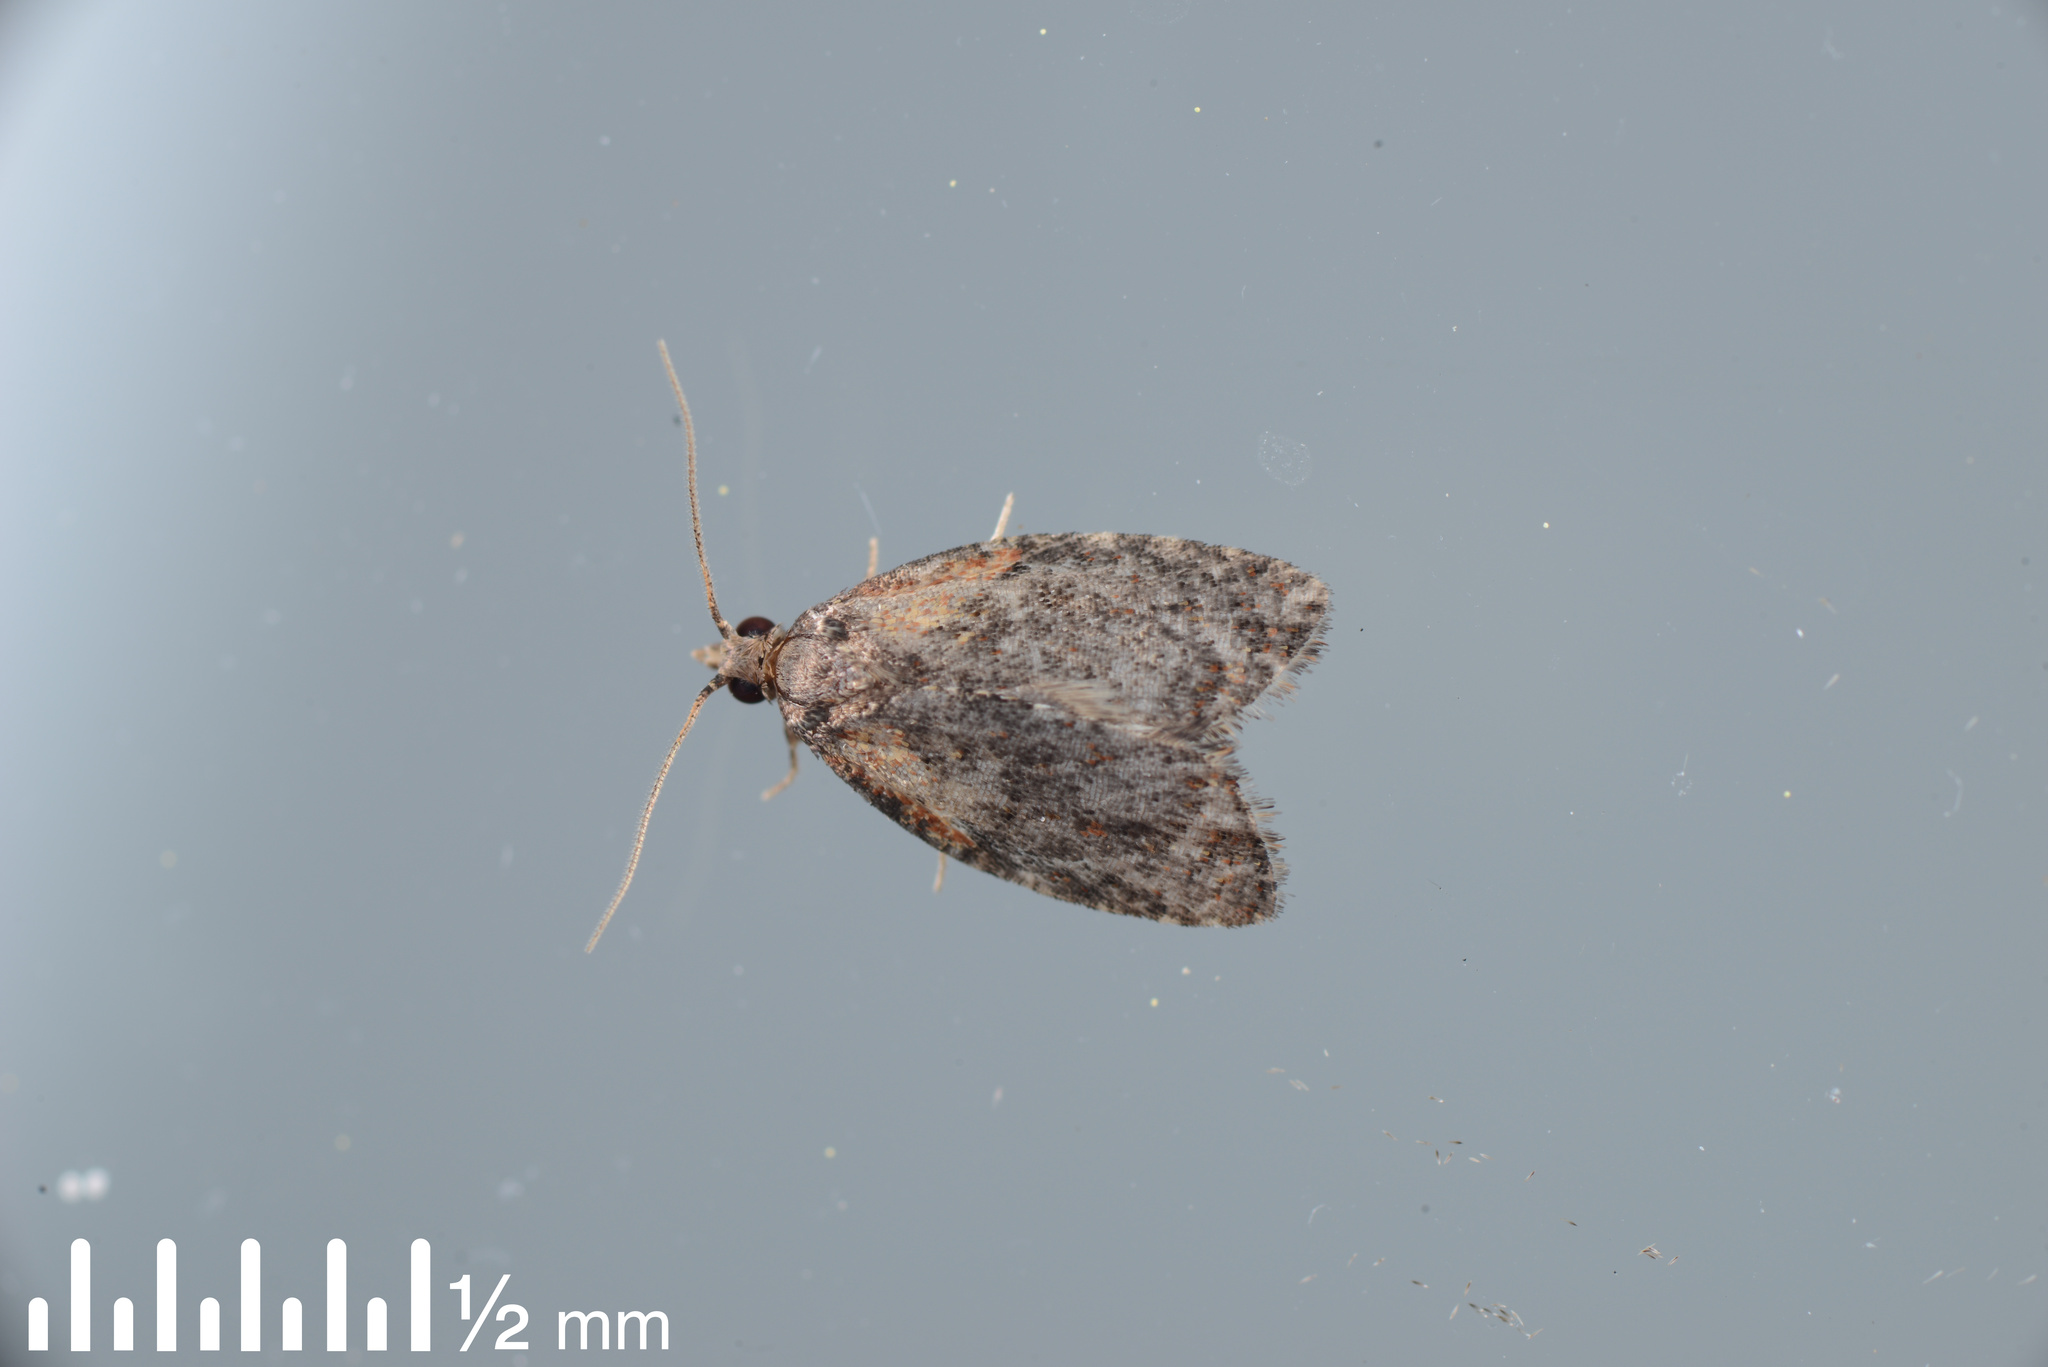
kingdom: Animalia
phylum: Arthropoda
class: Insecta
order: Lepidoptera
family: Tortricidae
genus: Capua
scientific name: Capua intractana
